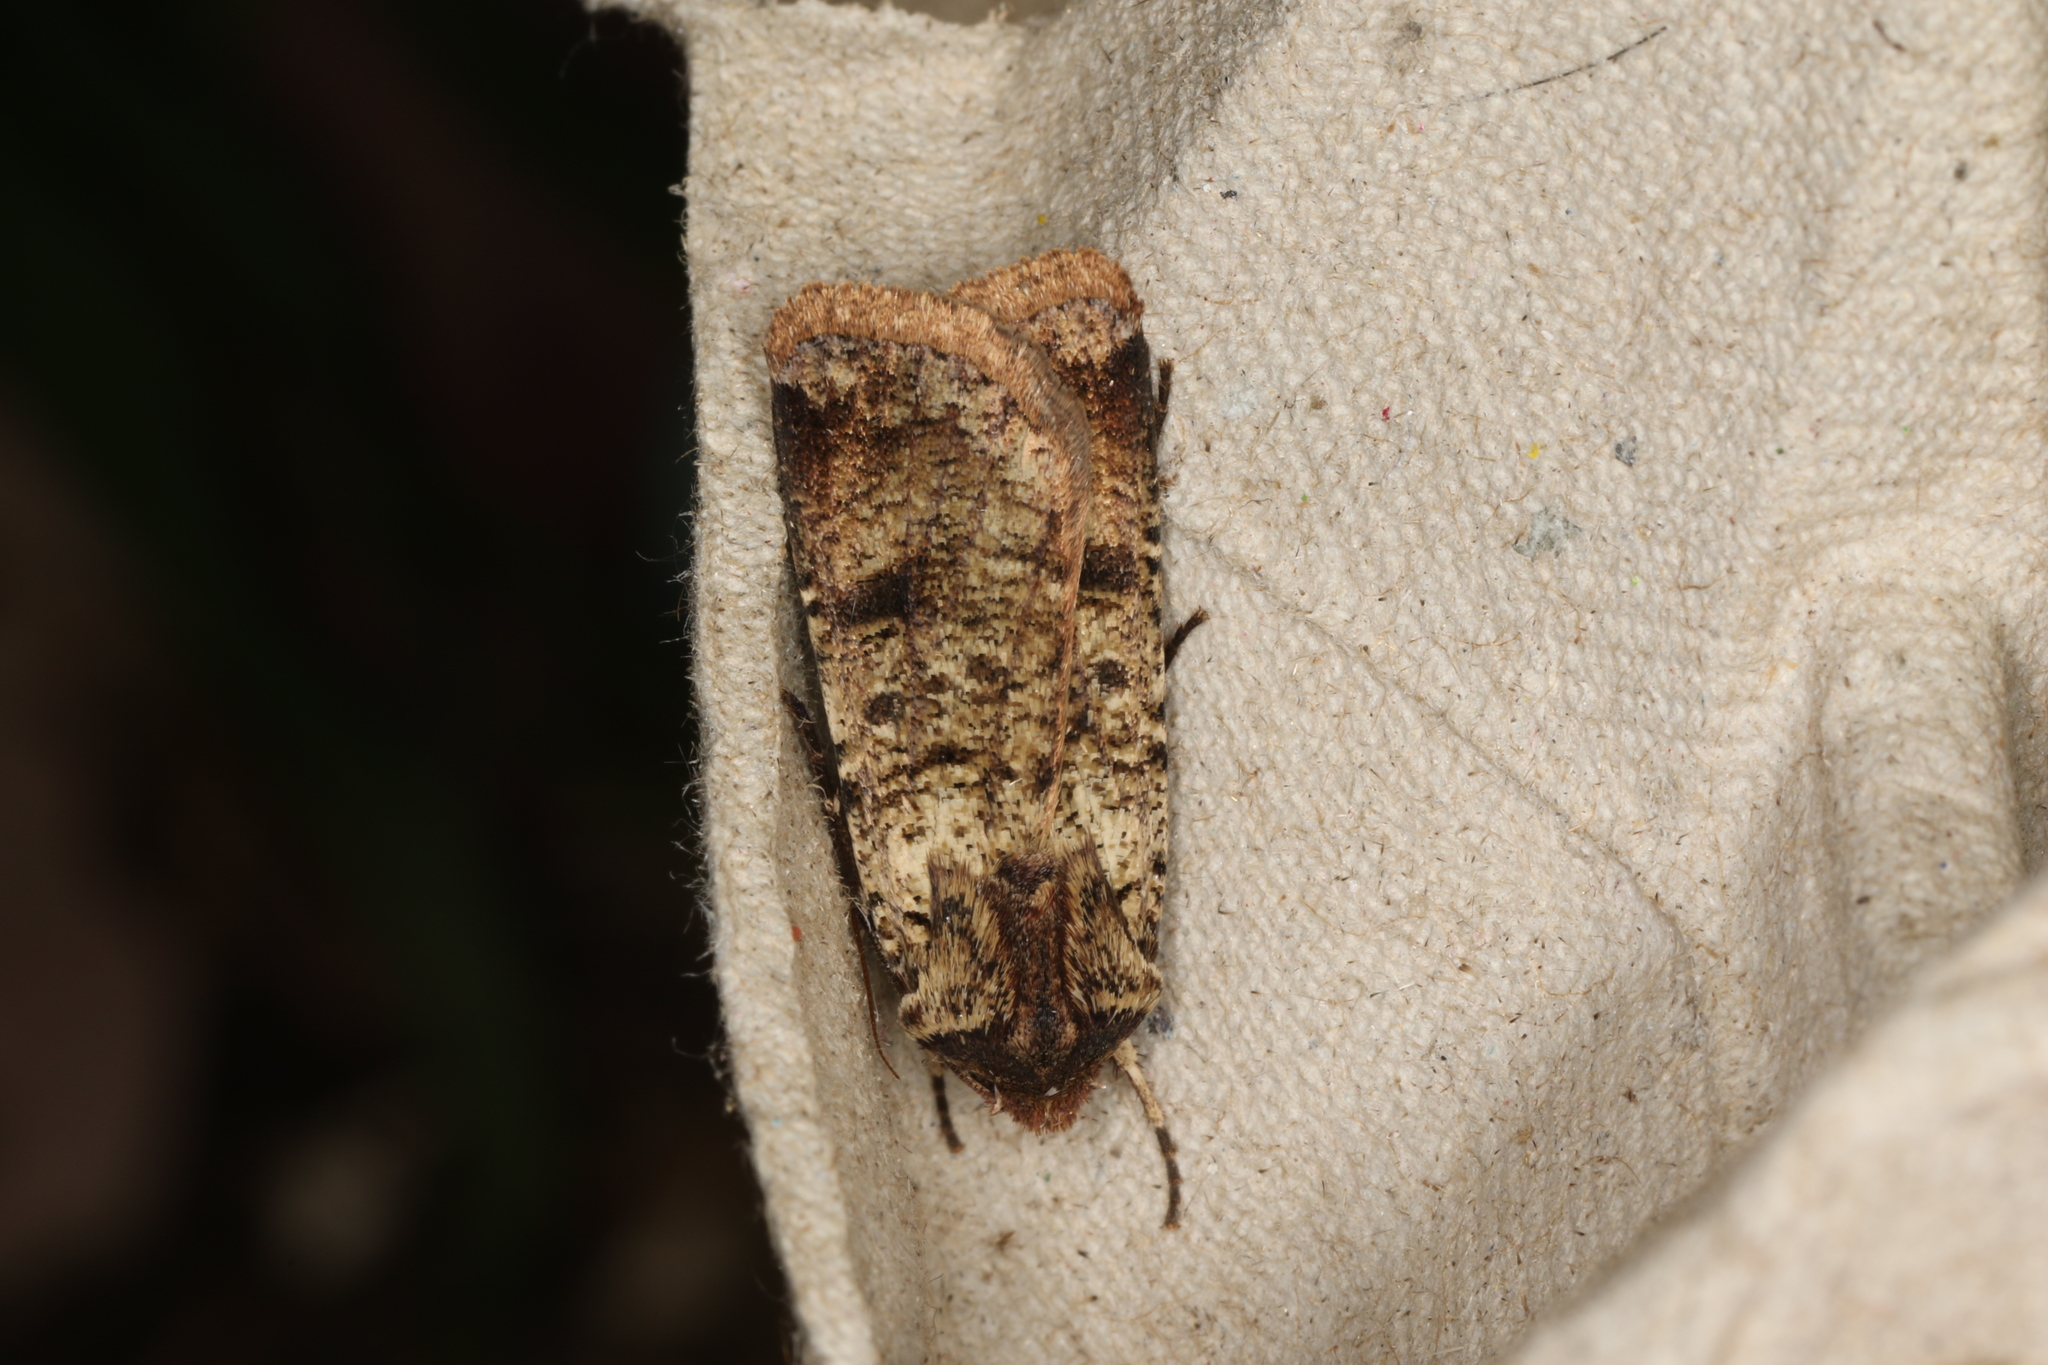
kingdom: Animalia
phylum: Arthropoda
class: Insecta
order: Lepidoptera
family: Noctuidae
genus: Agrotis
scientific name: Agrotis porphyricollis
